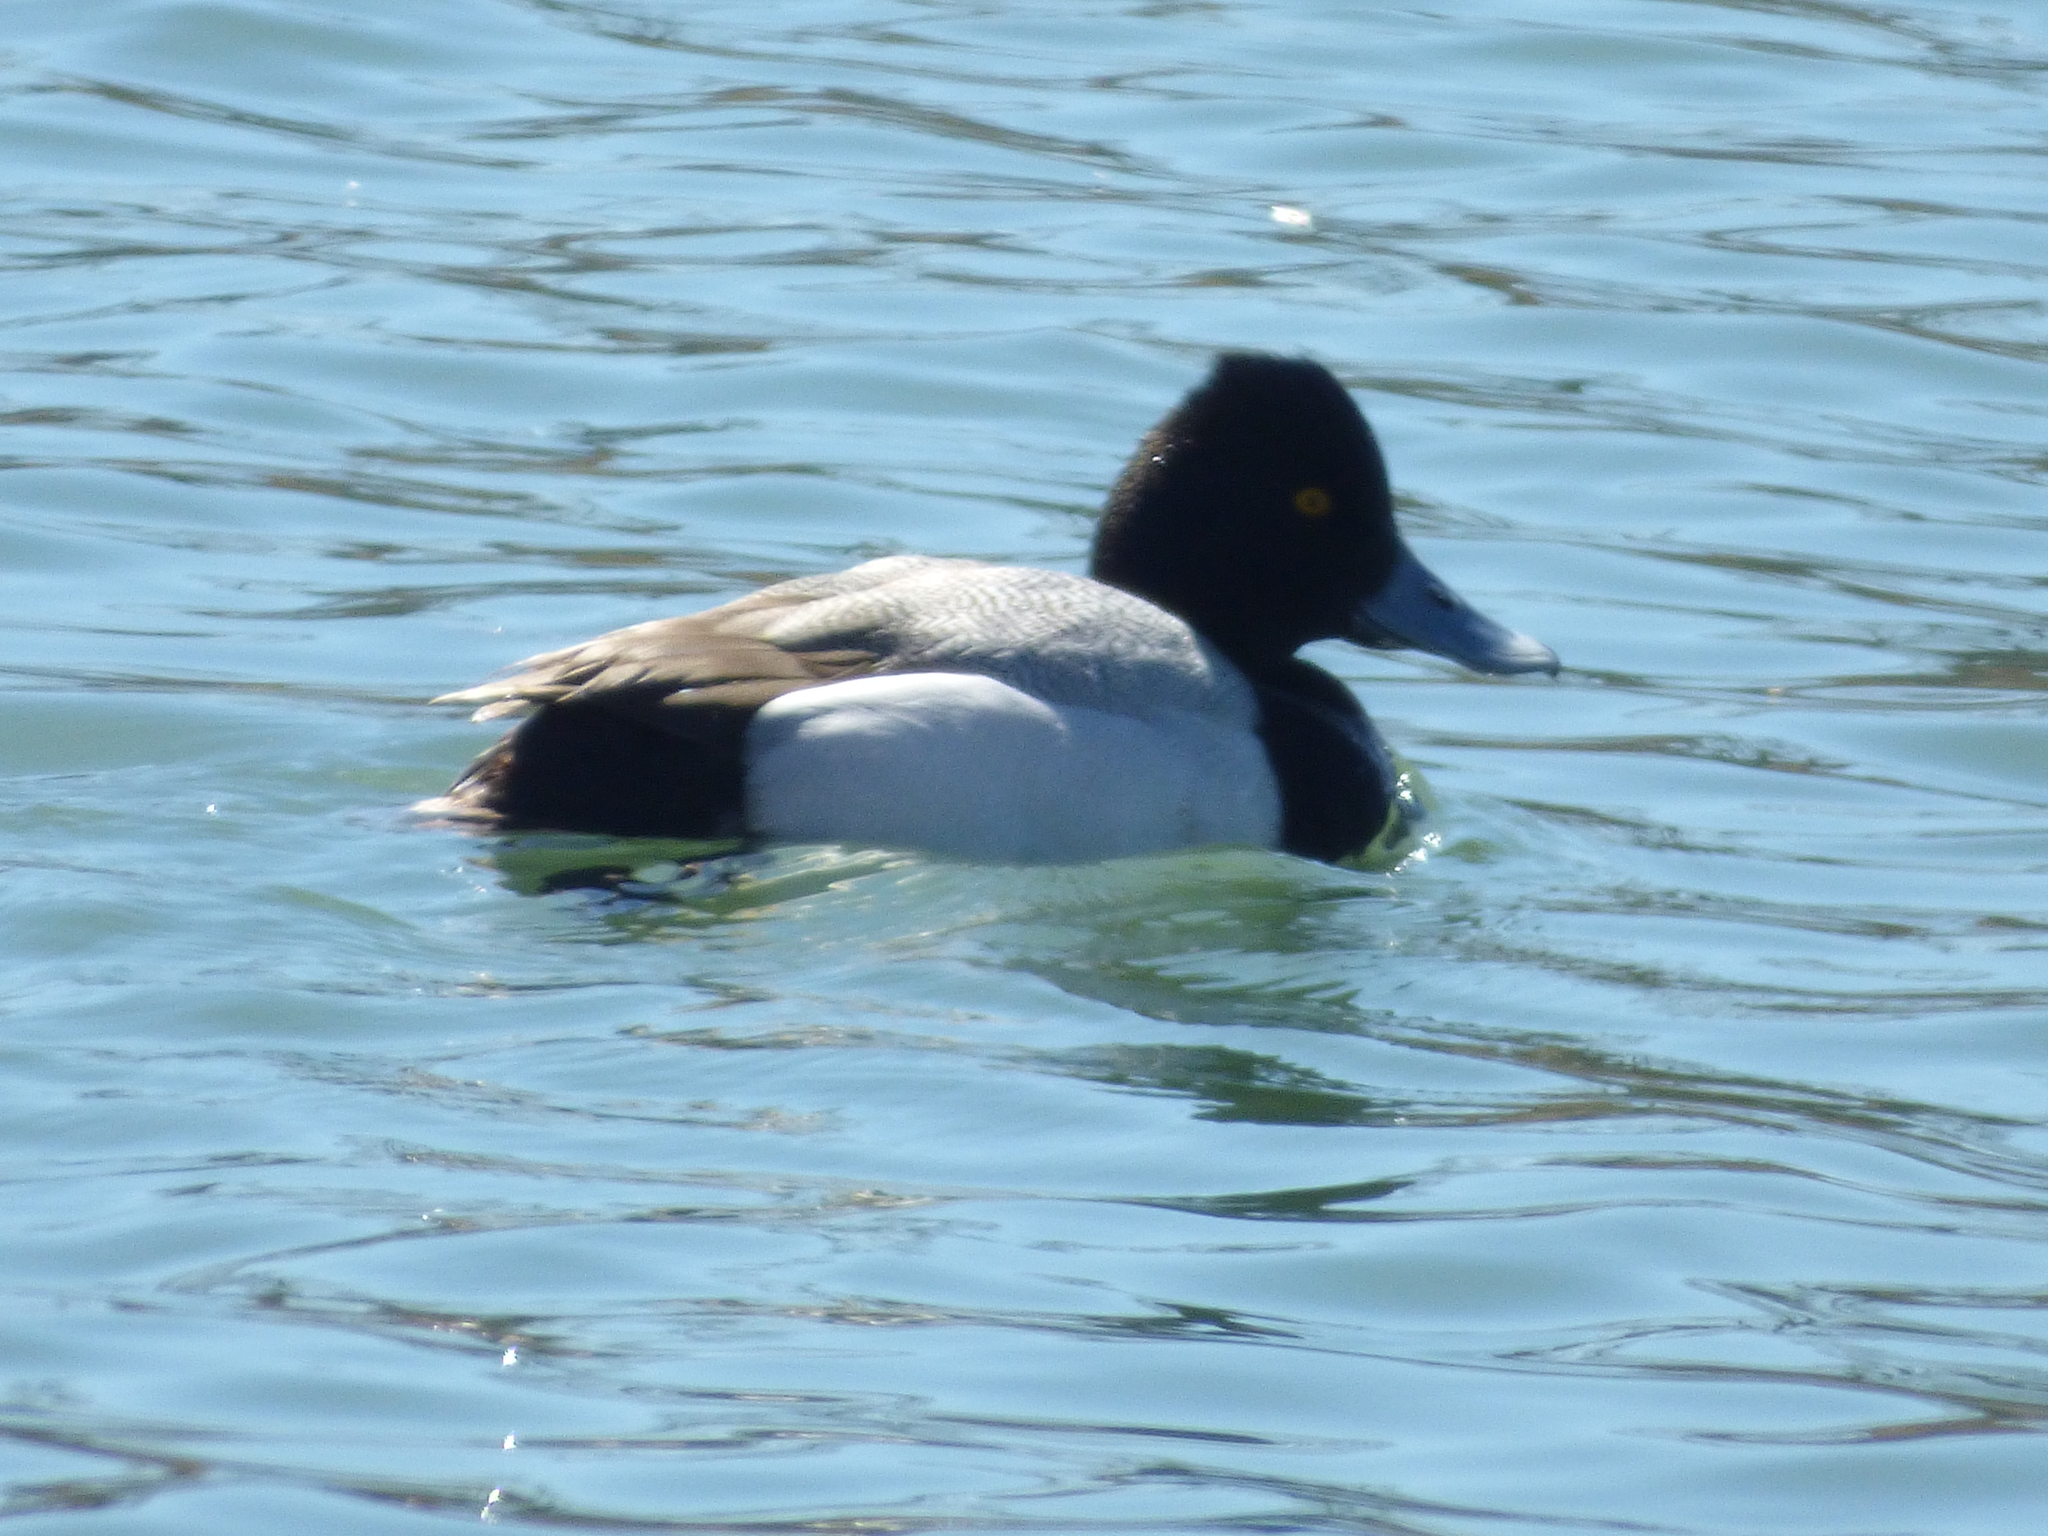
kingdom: Animalia
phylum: Chordata
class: Aves
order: Anseriformes
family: Anatidae
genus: Aythya
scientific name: Aythya affinis
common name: Lesser scaup
